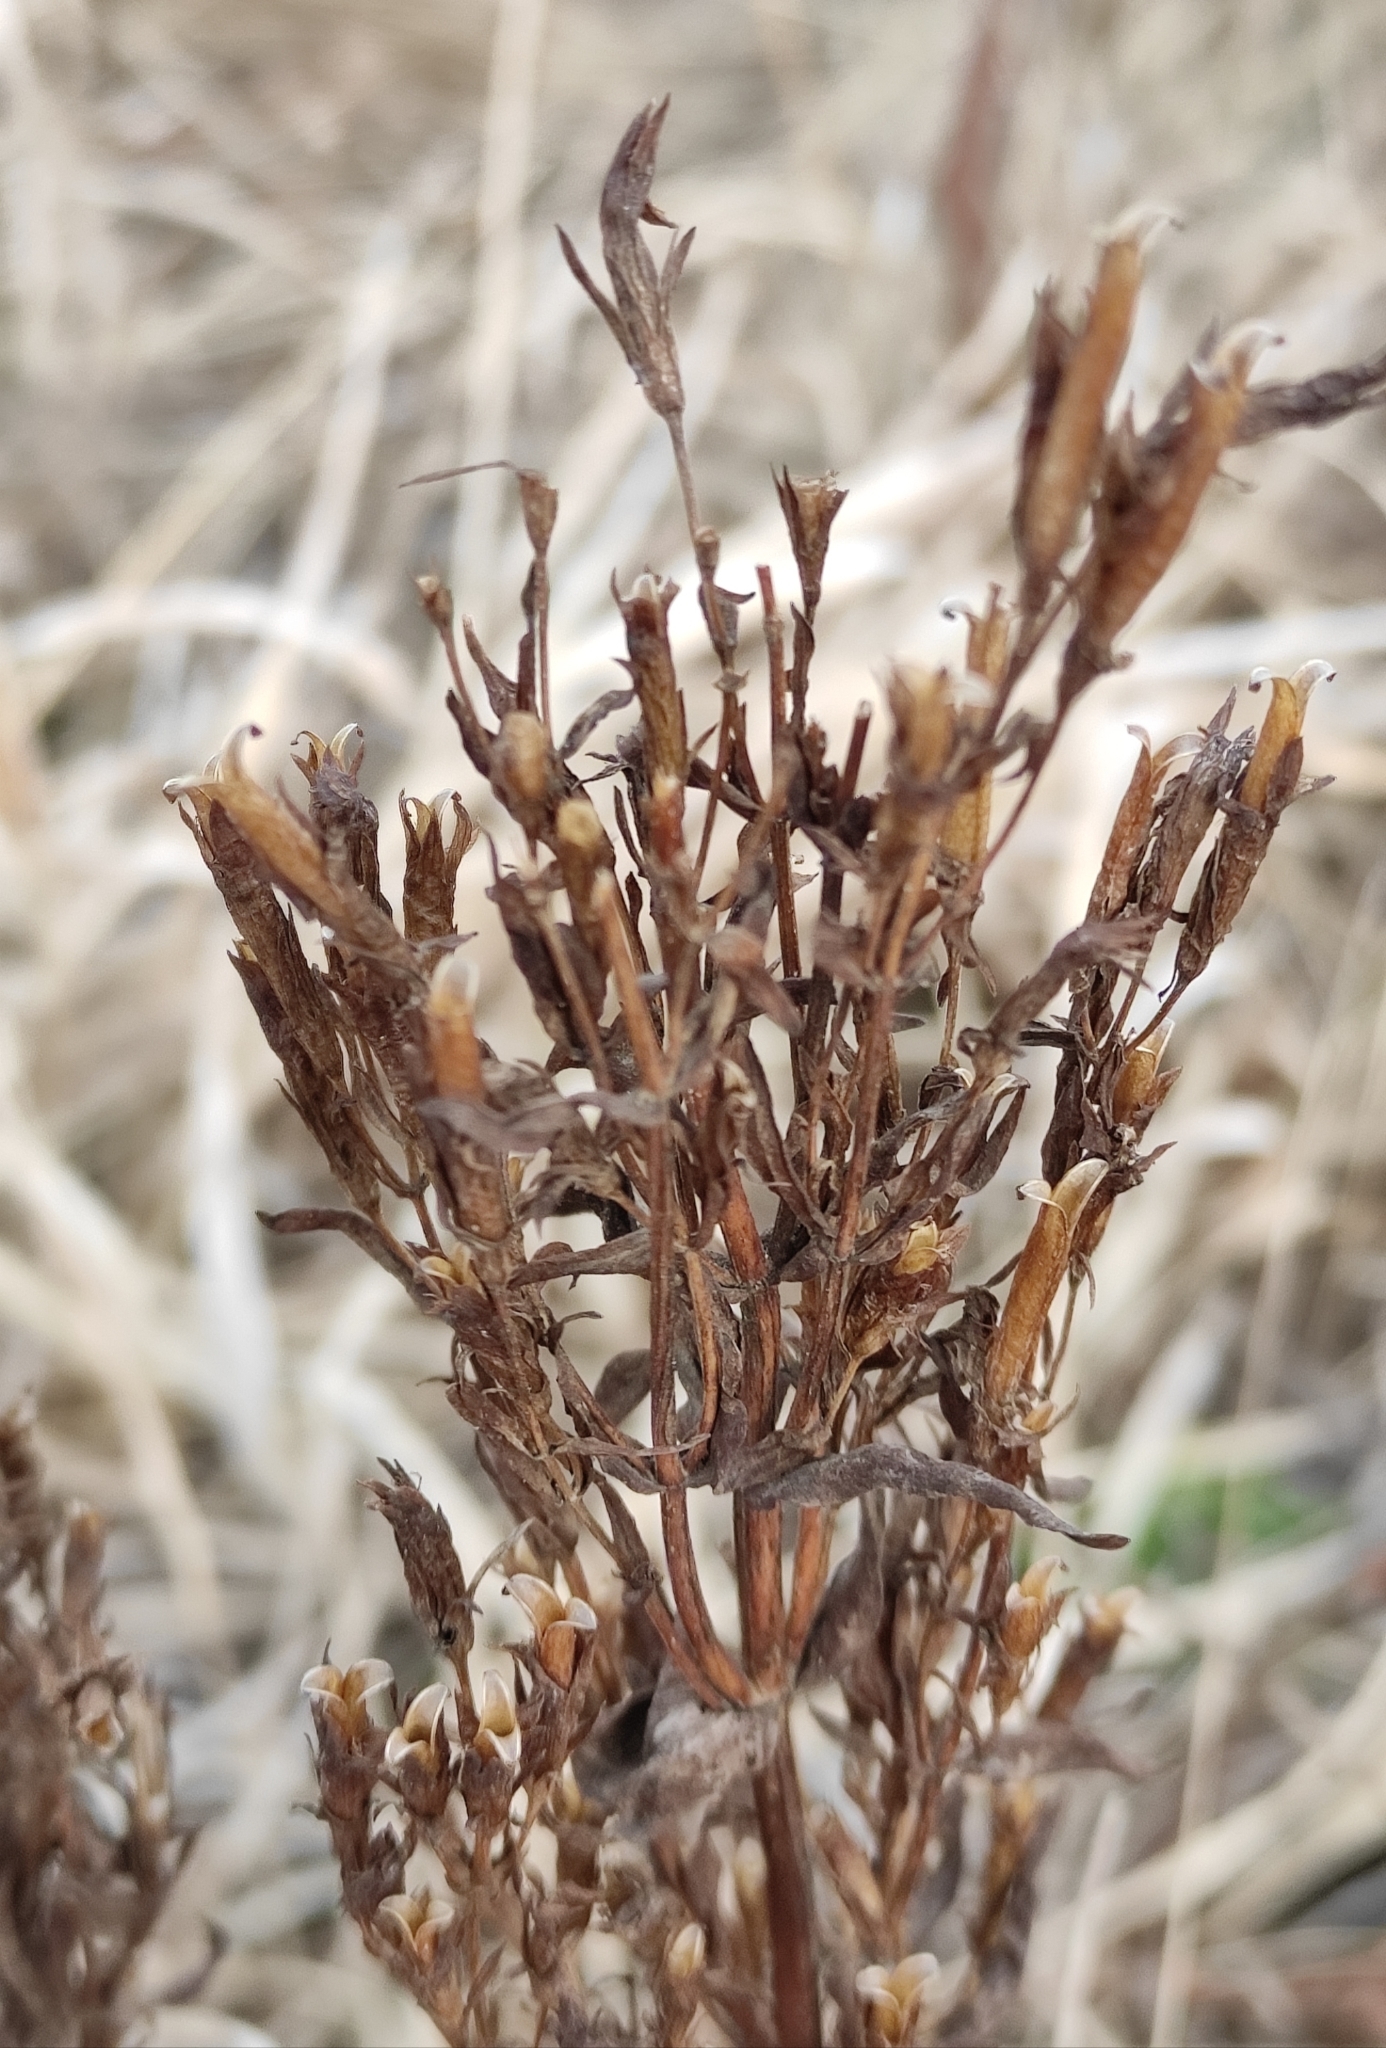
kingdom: Plantae
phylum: Tracheophyta
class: Magnoliopsida
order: Gentianales
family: Gentianaceae
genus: Gentianella
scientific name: Gentianella amarella
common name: Autumn gentian
